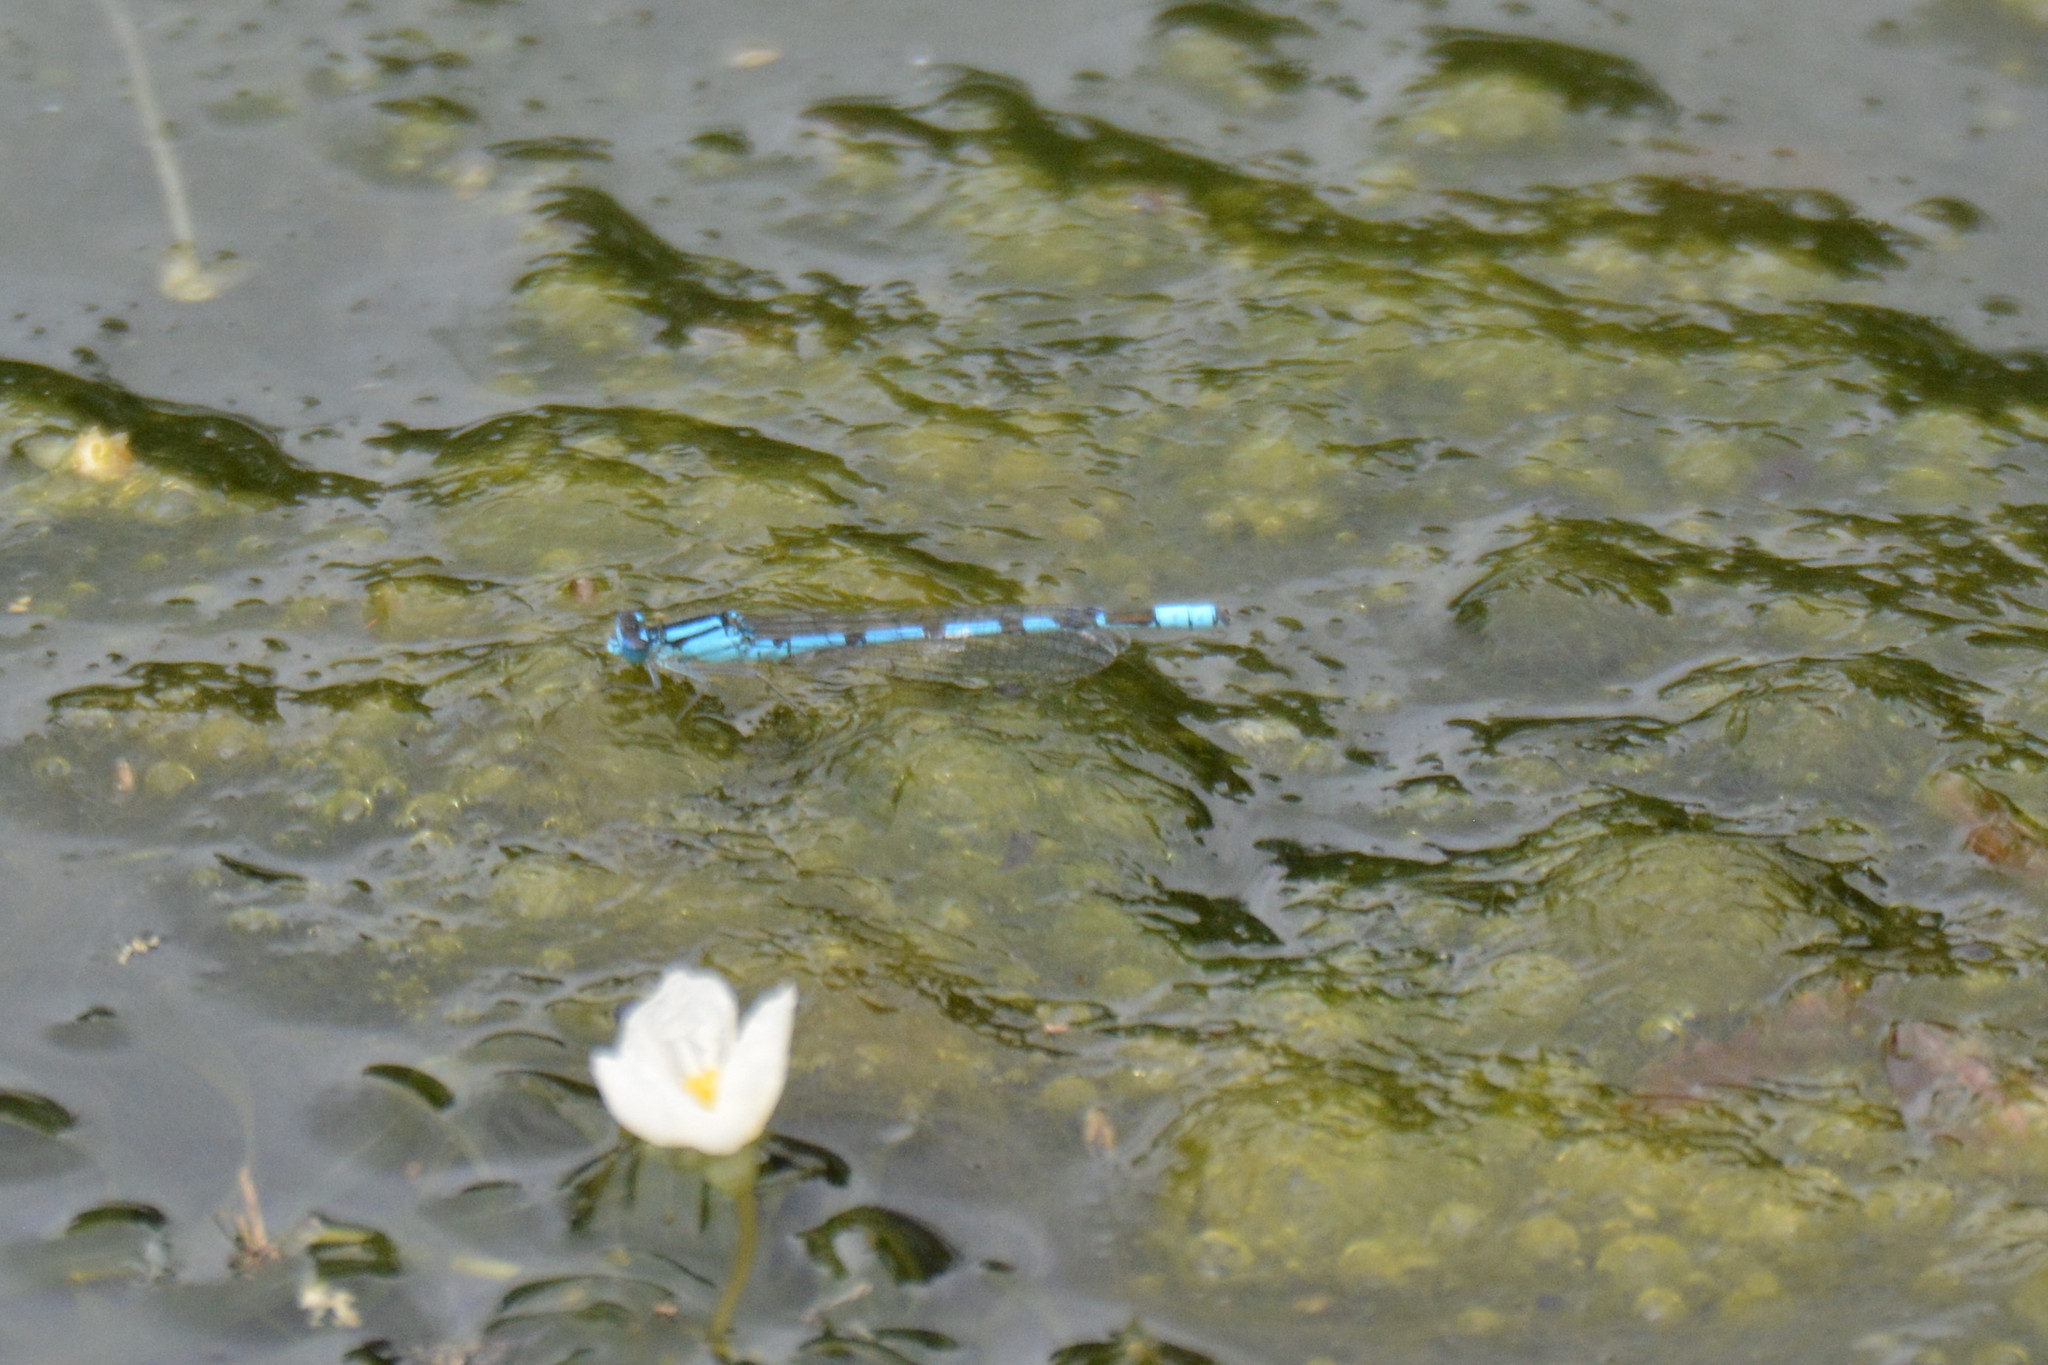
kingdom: Animalia
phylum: Arthropoda
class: Insecta
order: Odonata
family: Coenagrionidae
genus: Enallagma
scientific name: Enallagma cyathigerum
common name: Common blue damselfly
